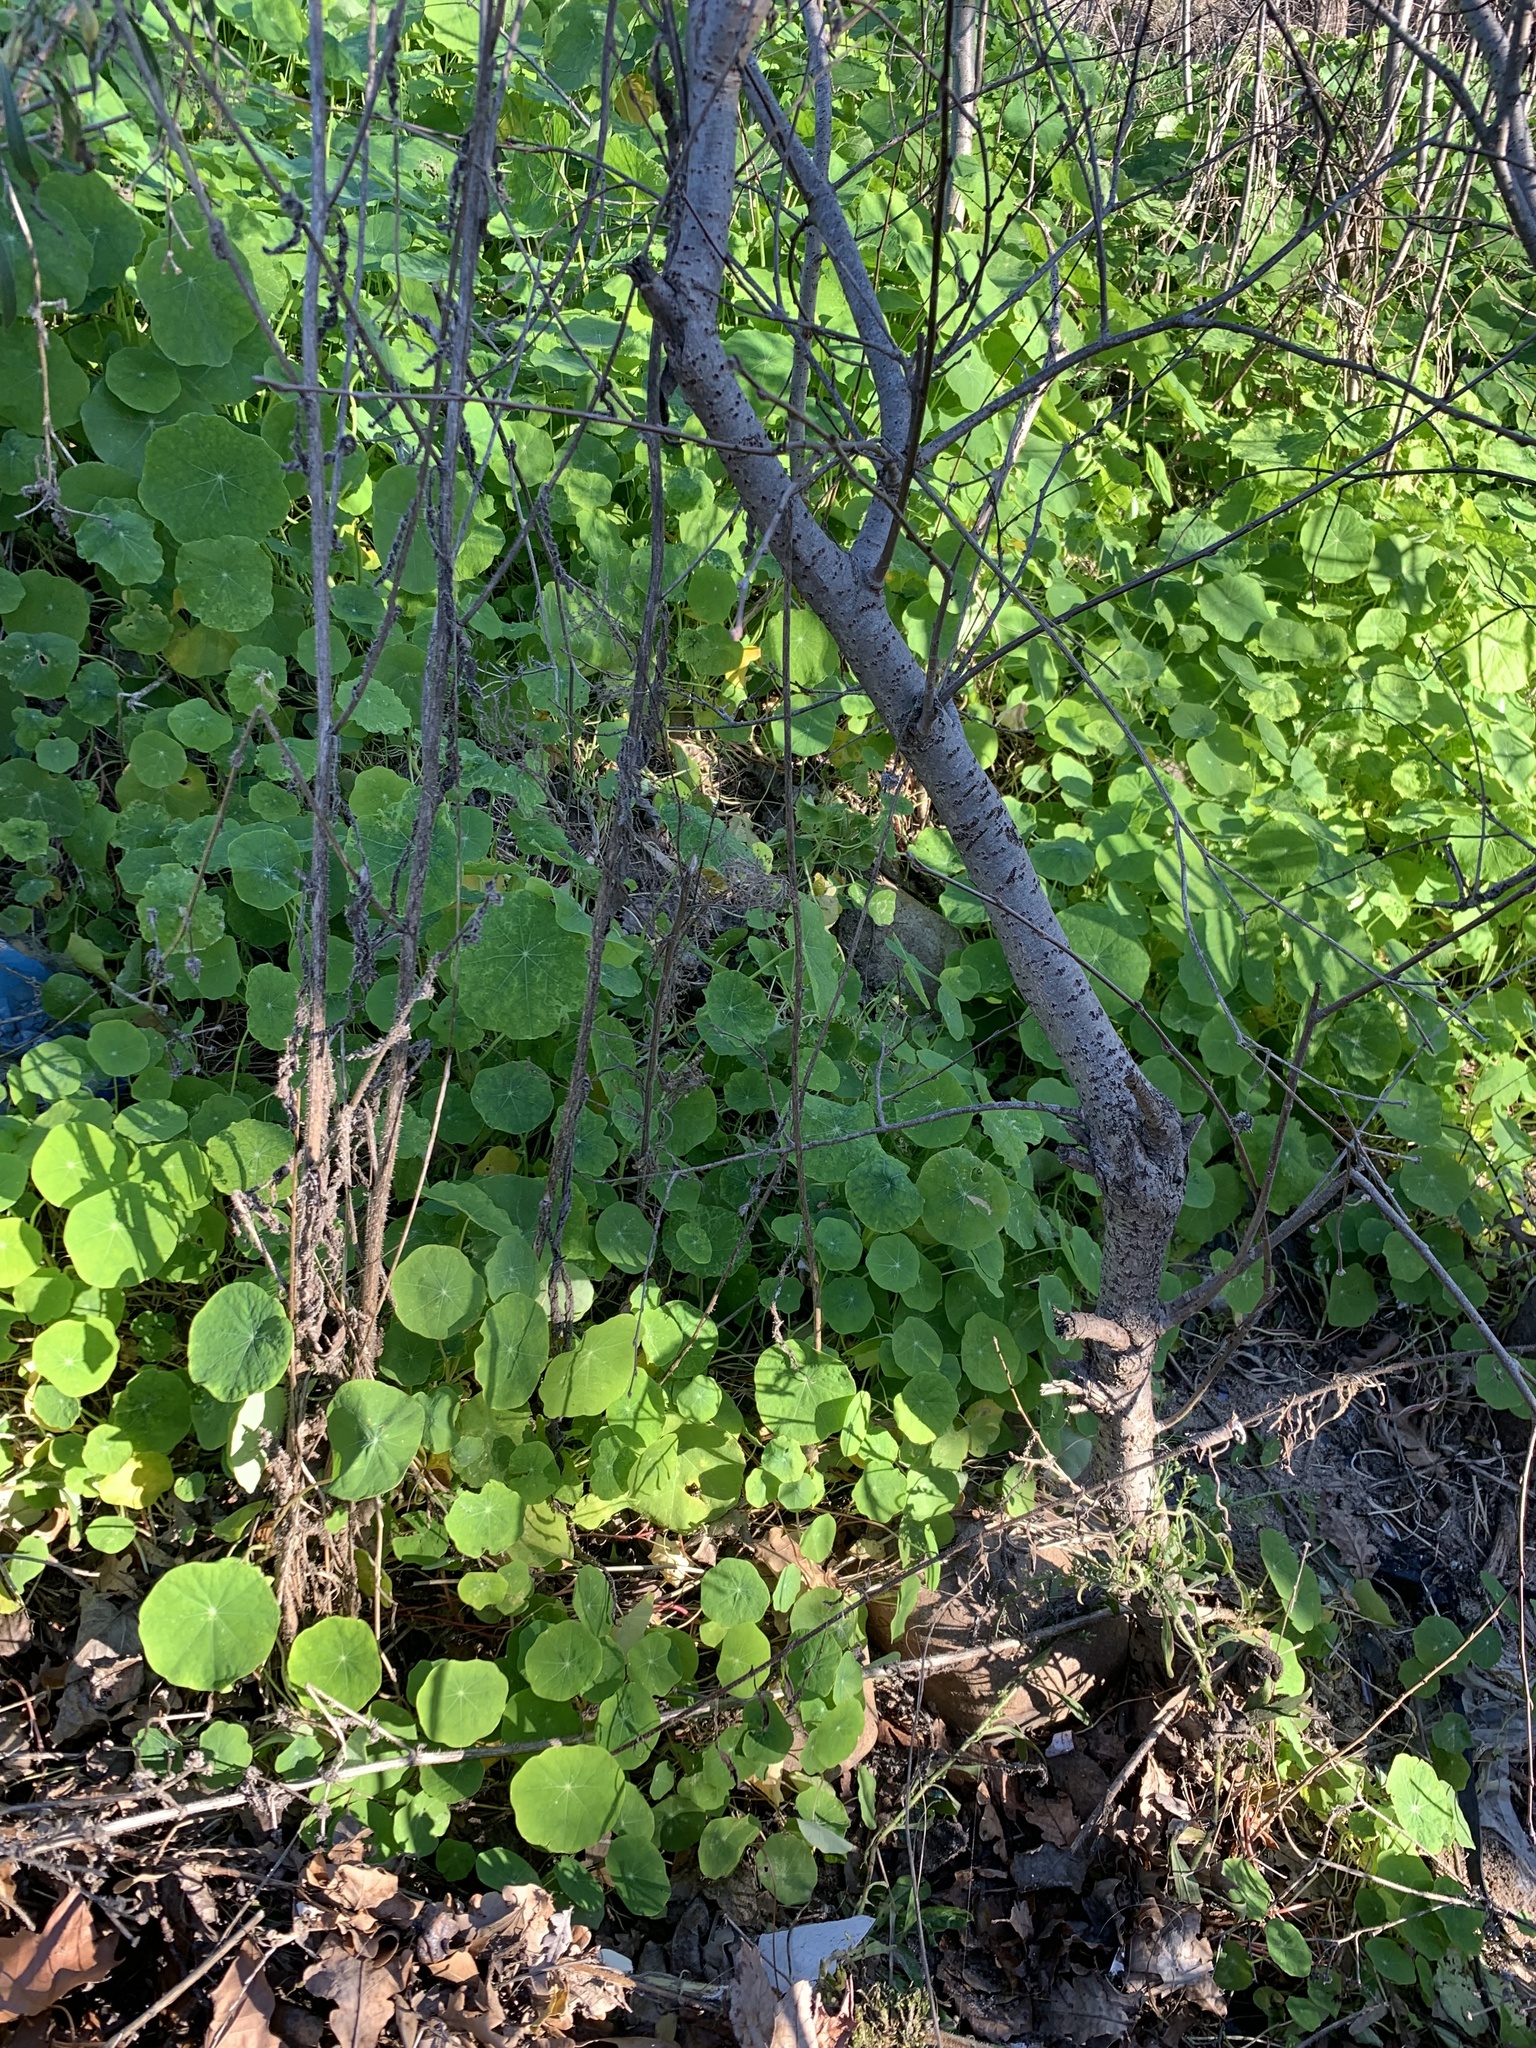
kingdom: Plantae
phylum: Tracheophyta
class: Magnoliopsida
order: Brassicales
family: Tropaeolaceae
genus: Tropaeolum
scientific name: Tropaeolum majus
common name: Nasturtium
